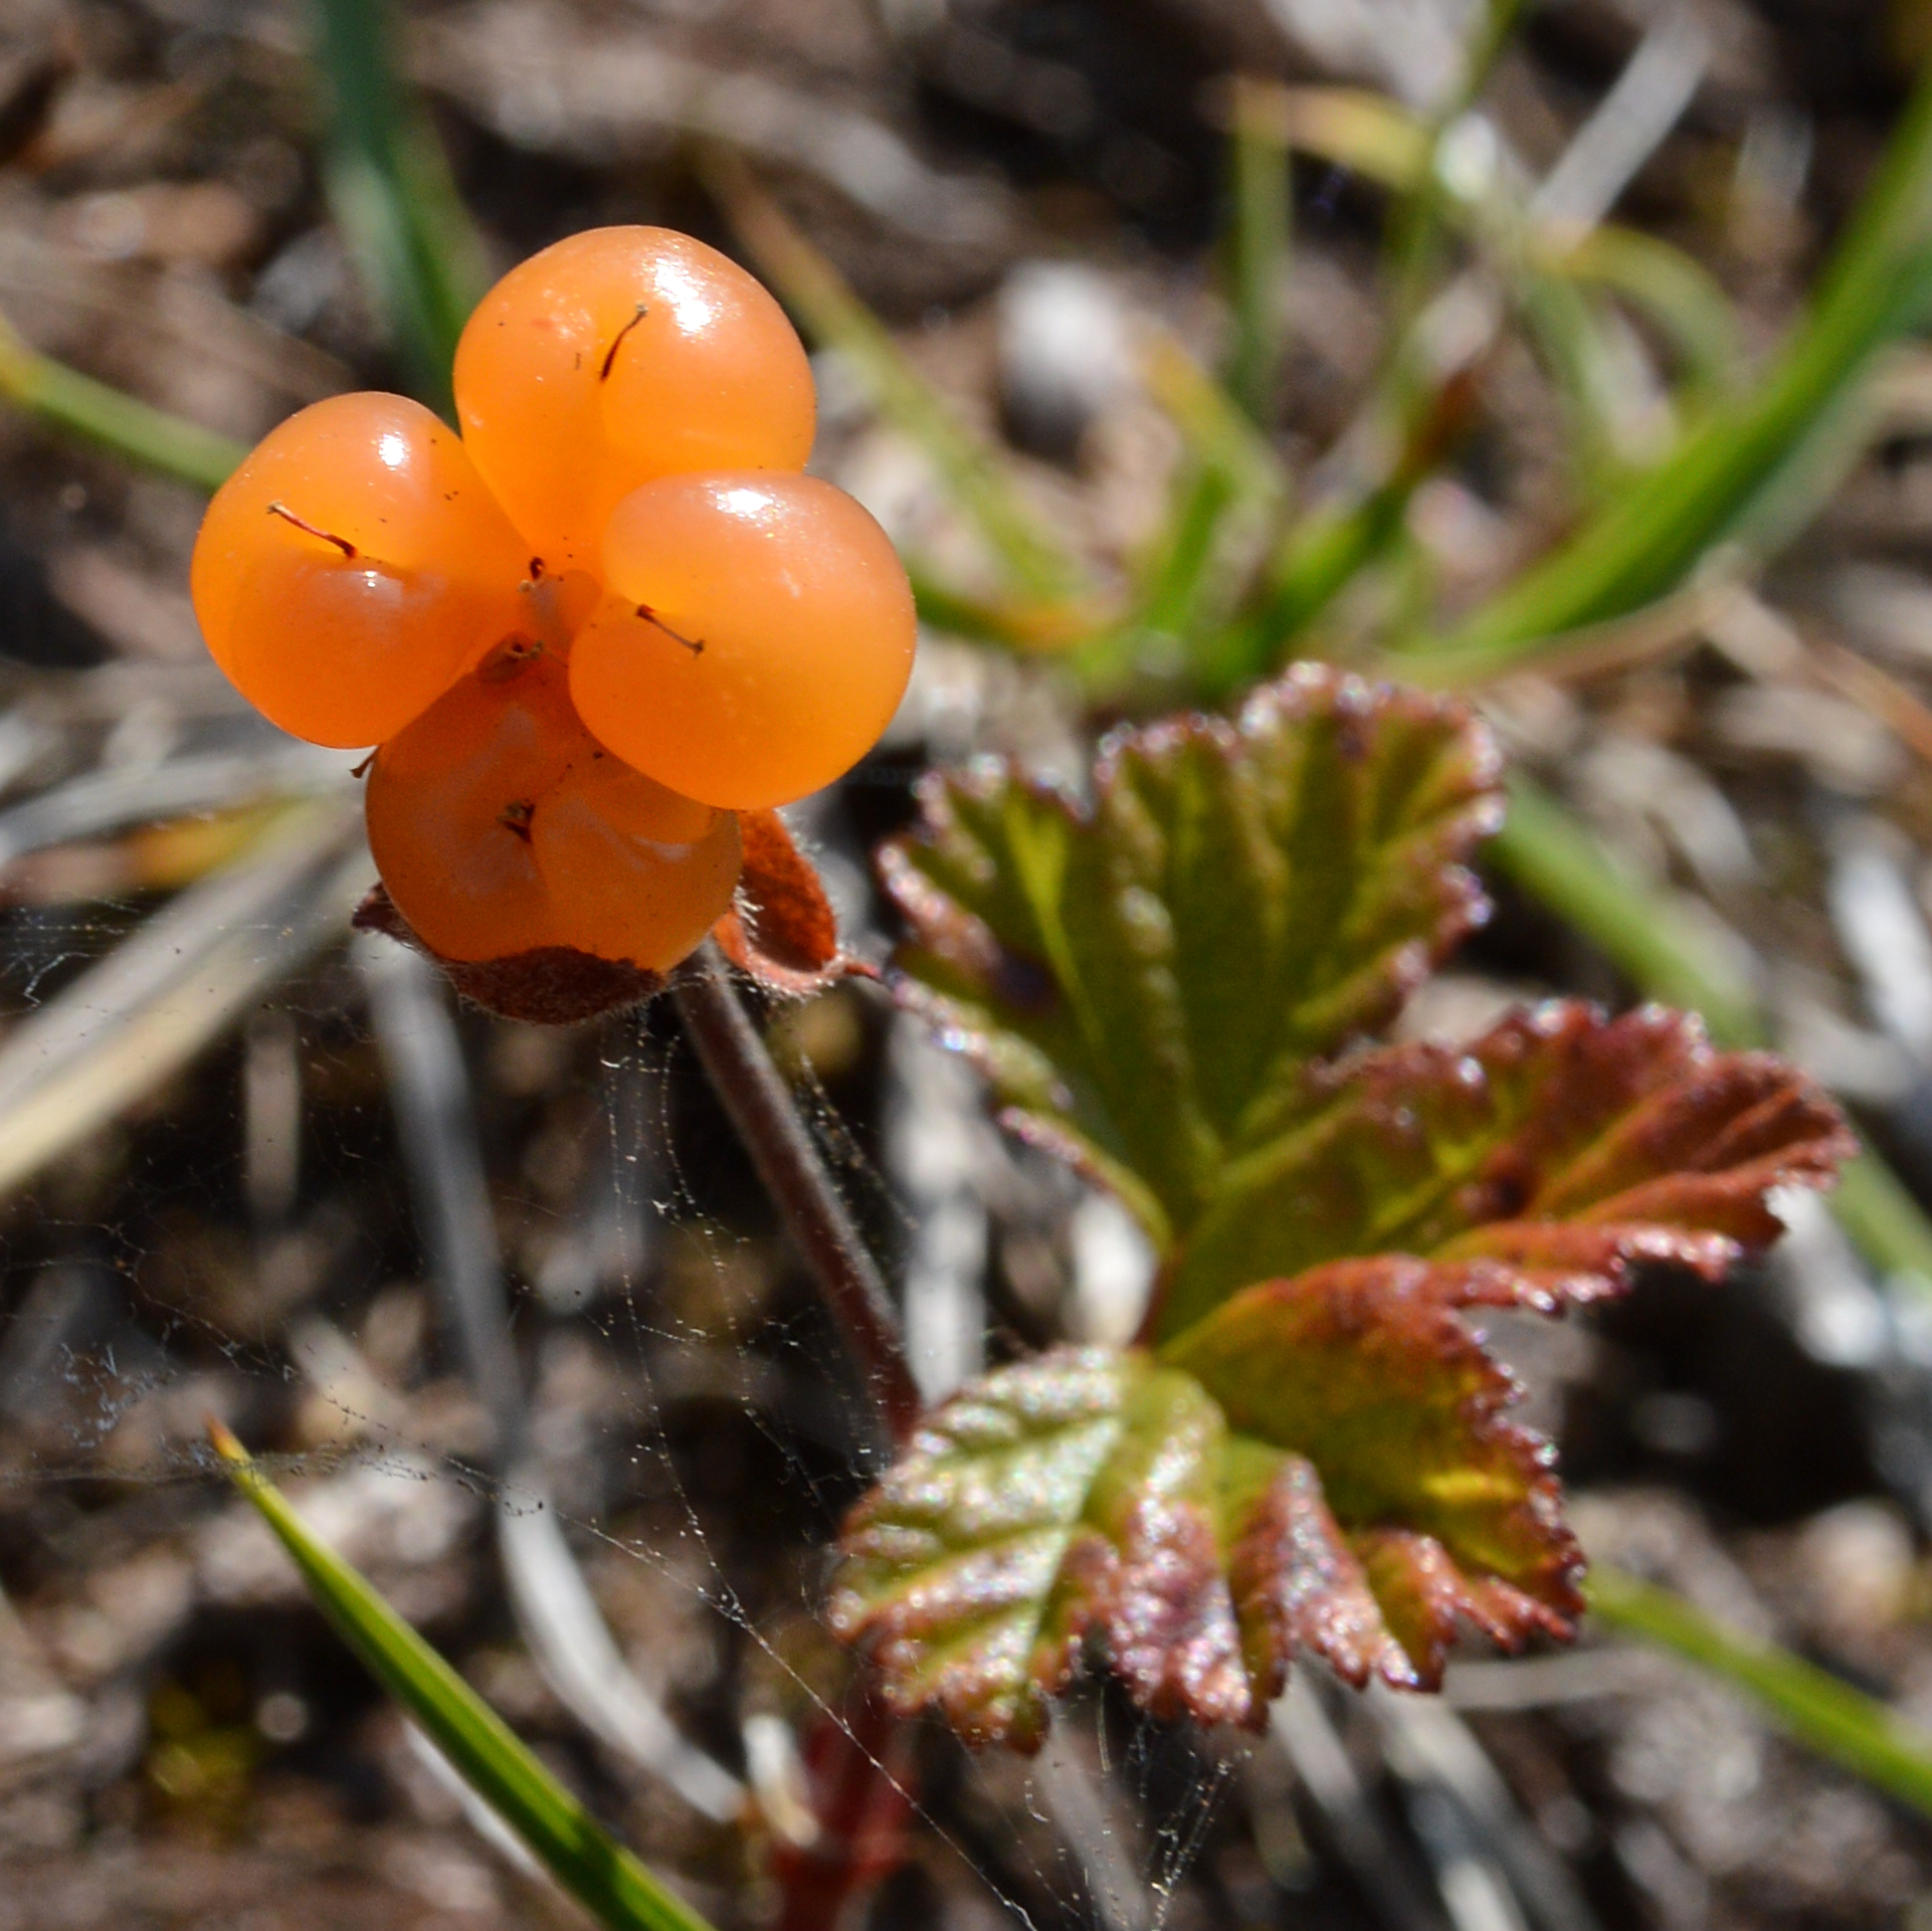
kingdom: Plantae
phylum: Tracheophyta
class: Magnoliopsida
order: Rosales
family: Rosaceae
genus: Rubus
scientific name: Rubus chamaemorus
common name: Cloudberry
